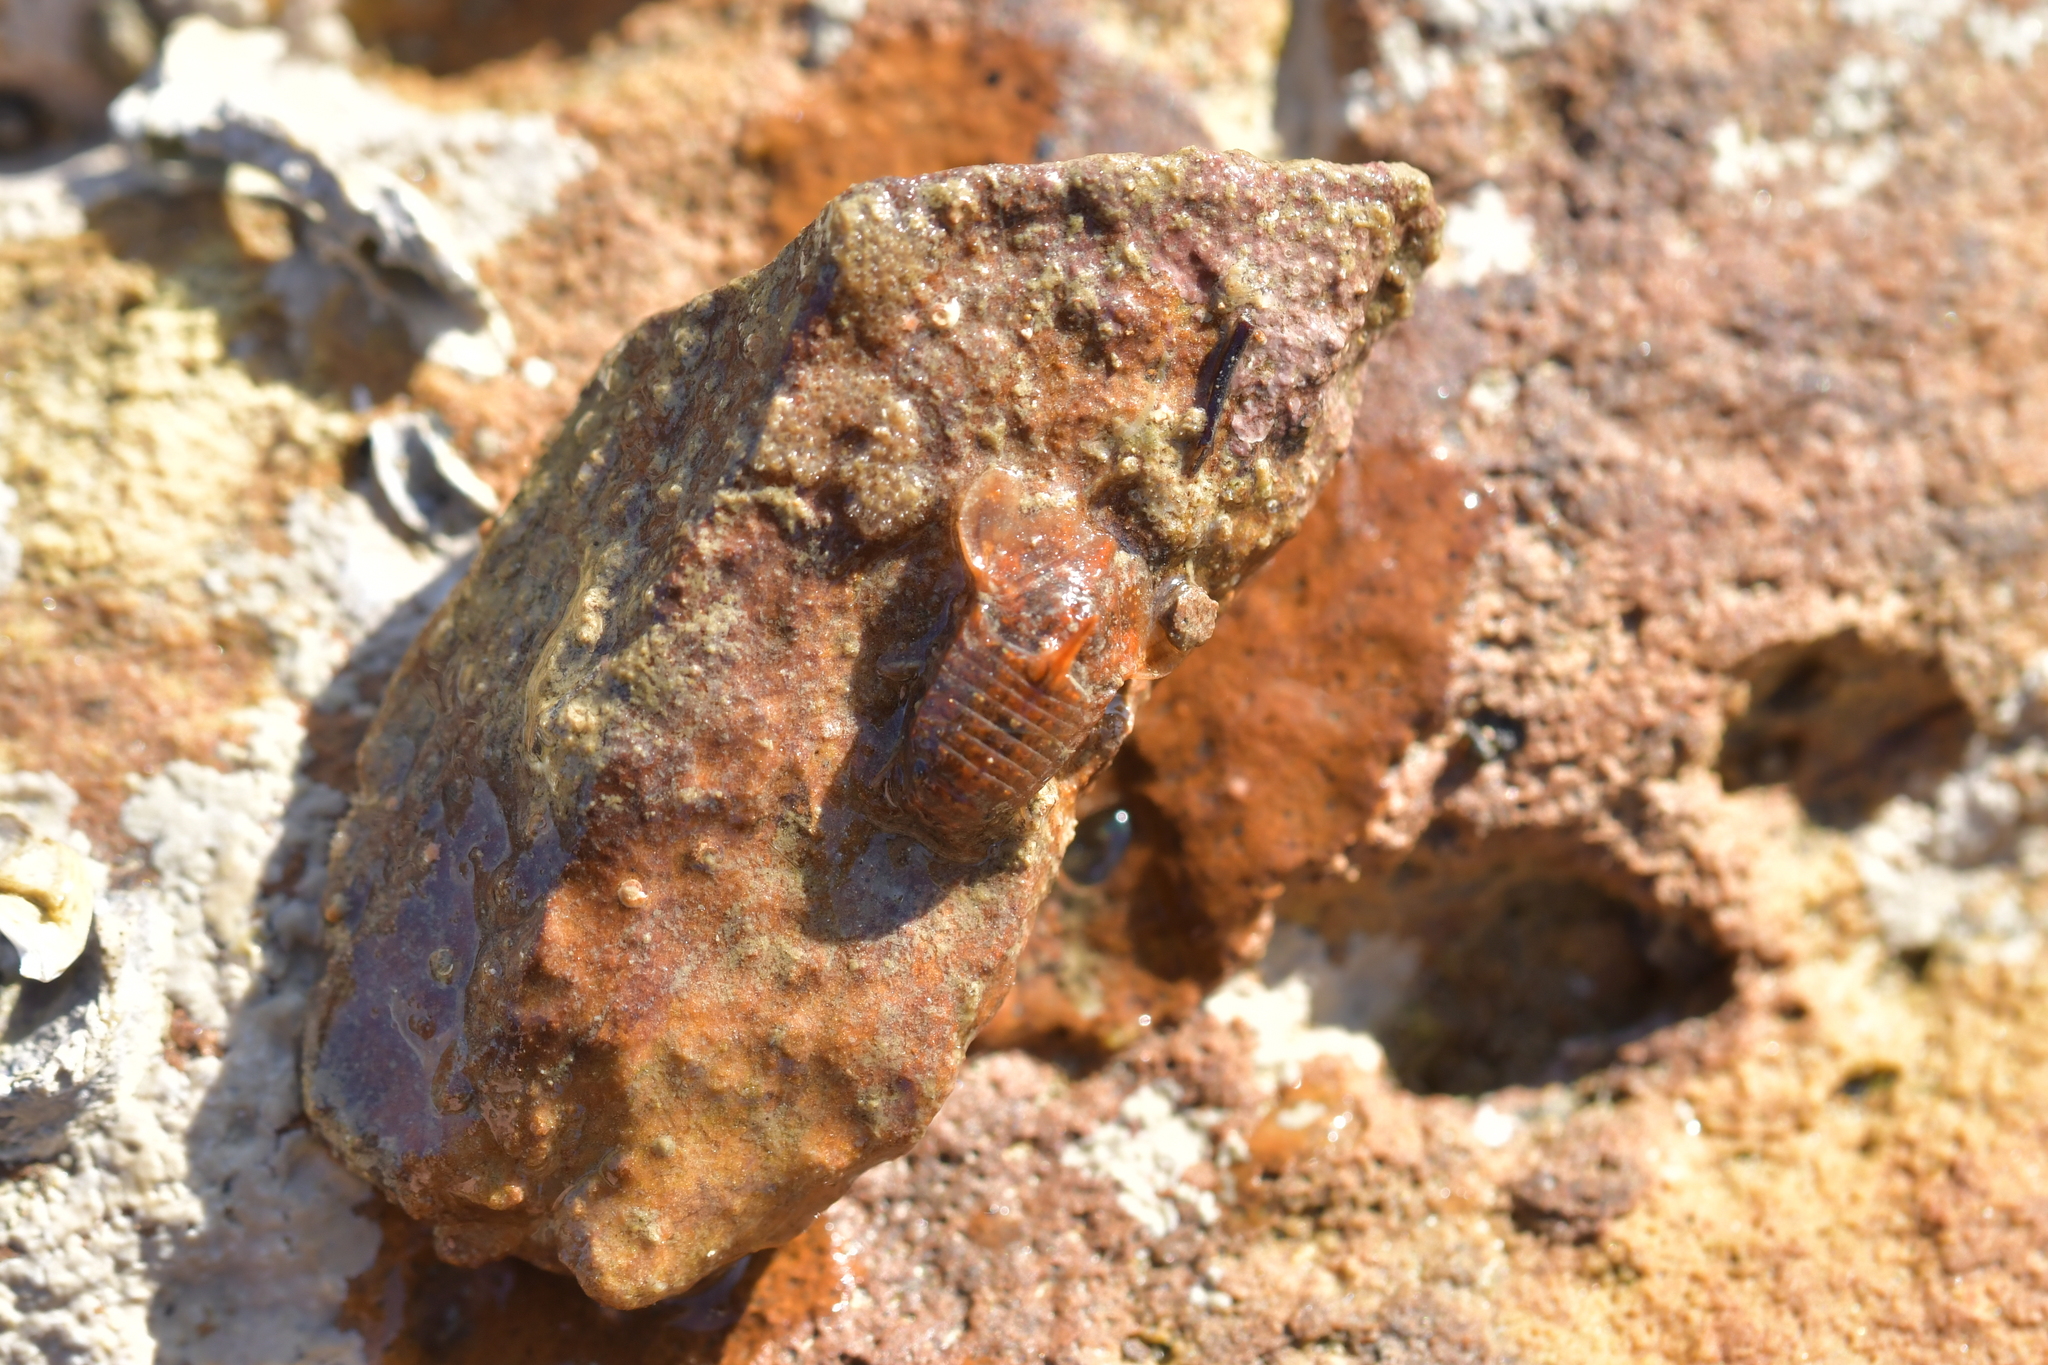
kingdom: Animalia
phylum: Arthropoda
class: Malacostraca
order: Isopoda
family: Sphaeromatidae
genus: Isocladus
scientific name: Isocladus calcareus
